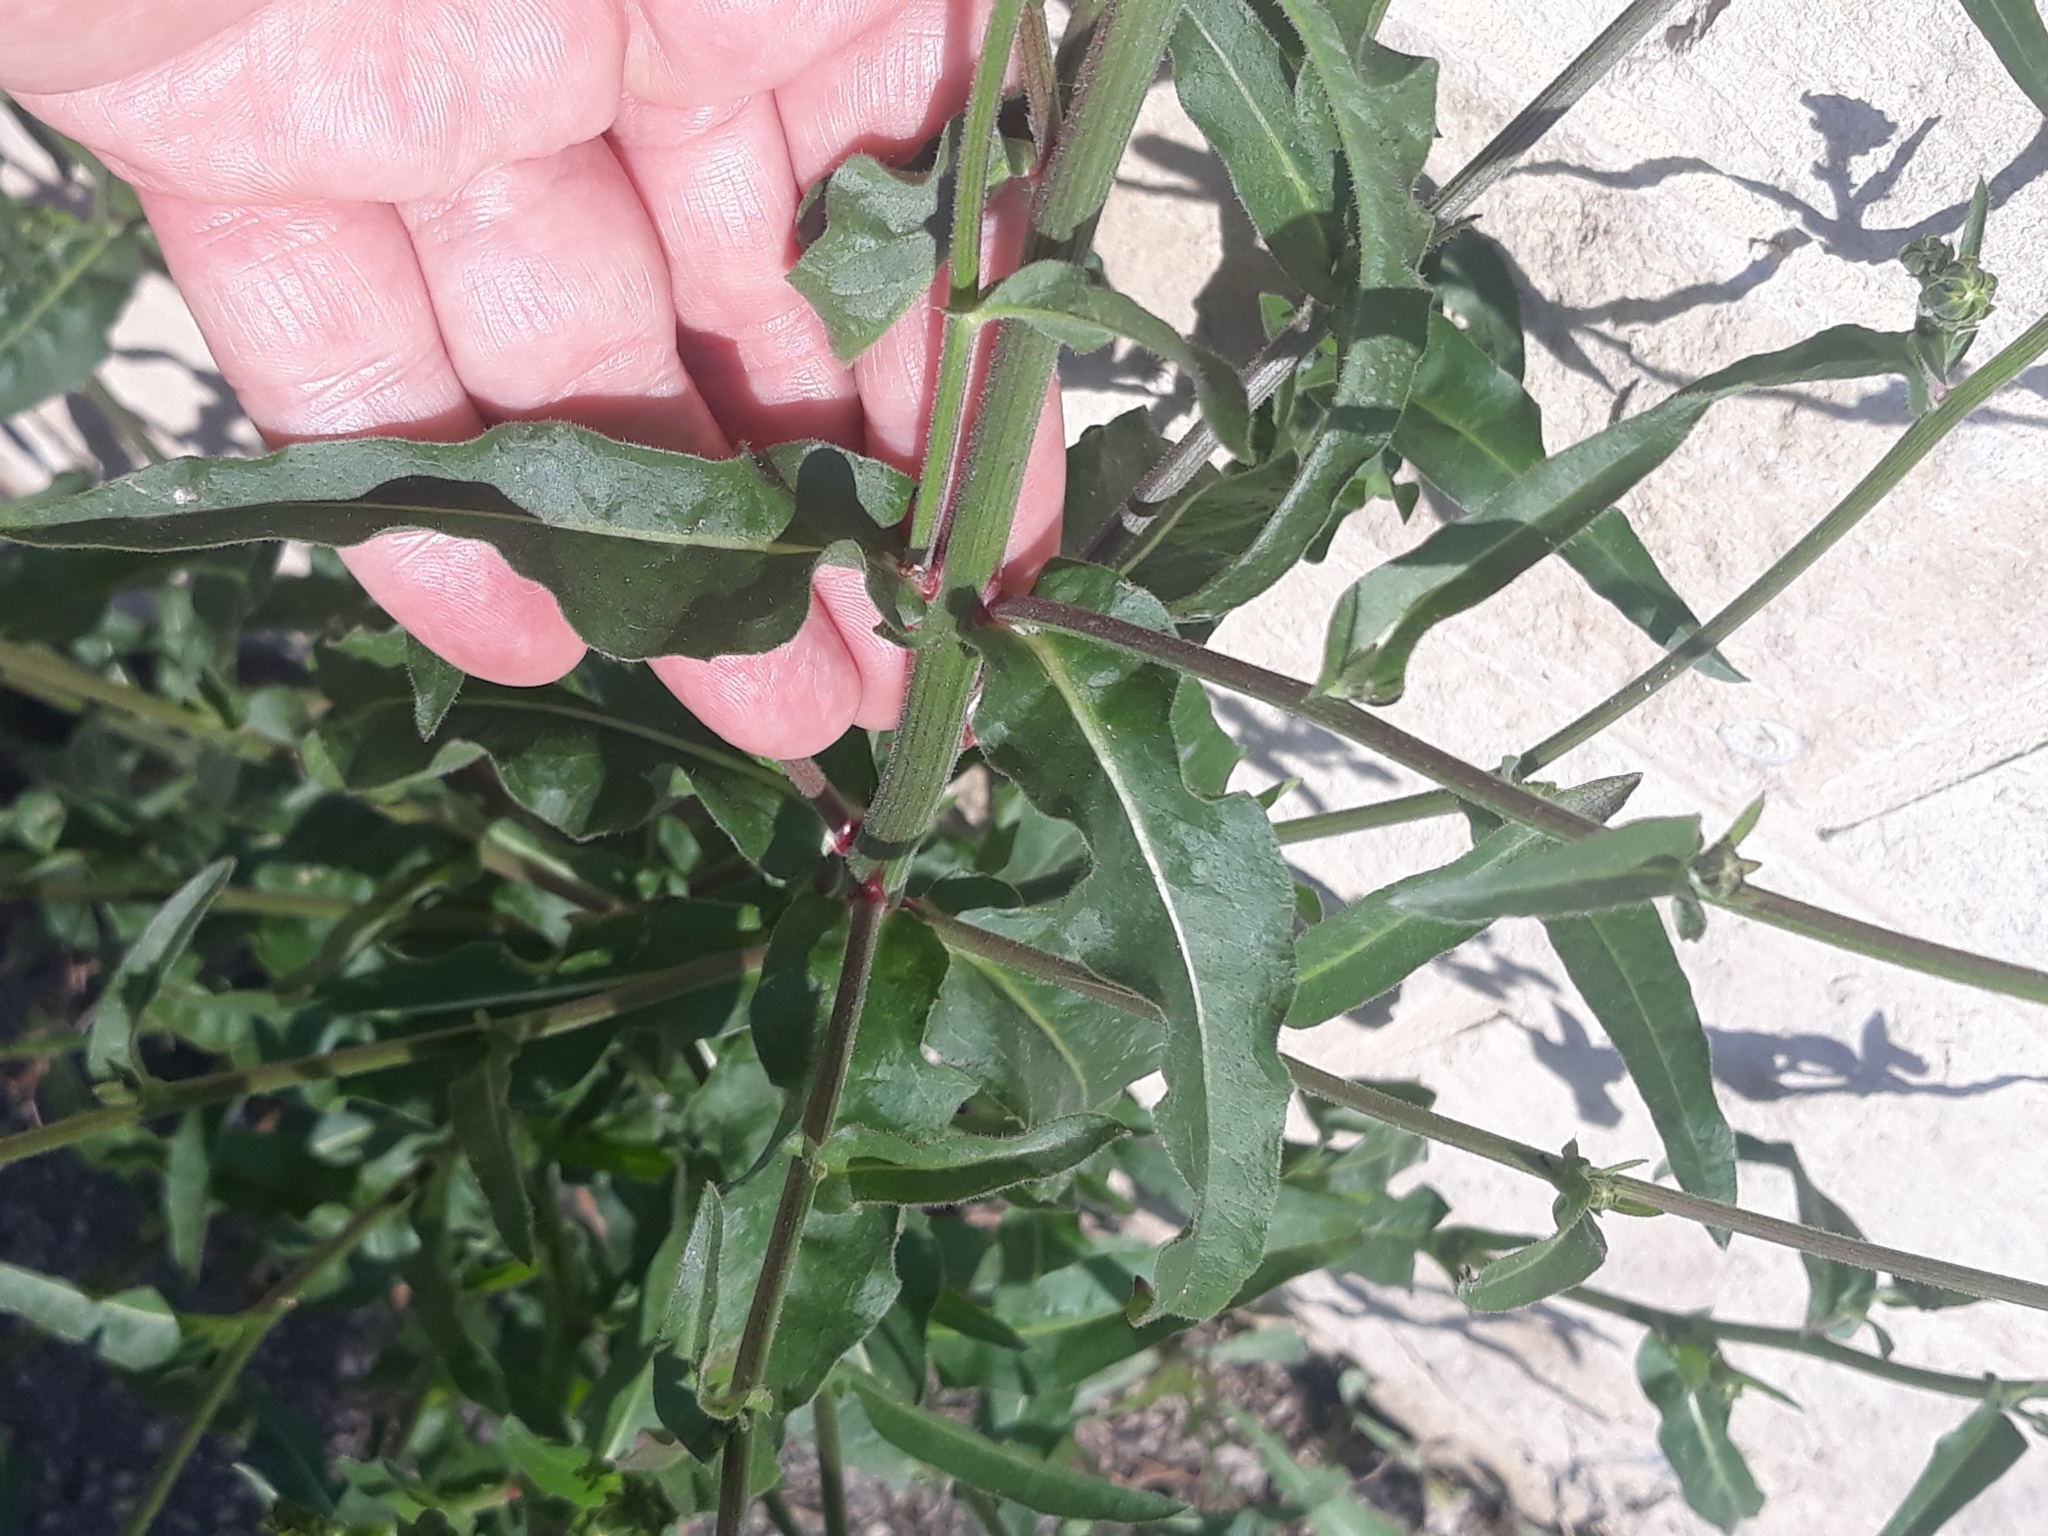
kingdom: Plantae
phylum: Tracheophyta
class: Magnoliopsida
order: Asterales
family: Asteraceae
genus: Picris
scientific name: Picris hieracioides
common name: Hawkweed oxtongue
